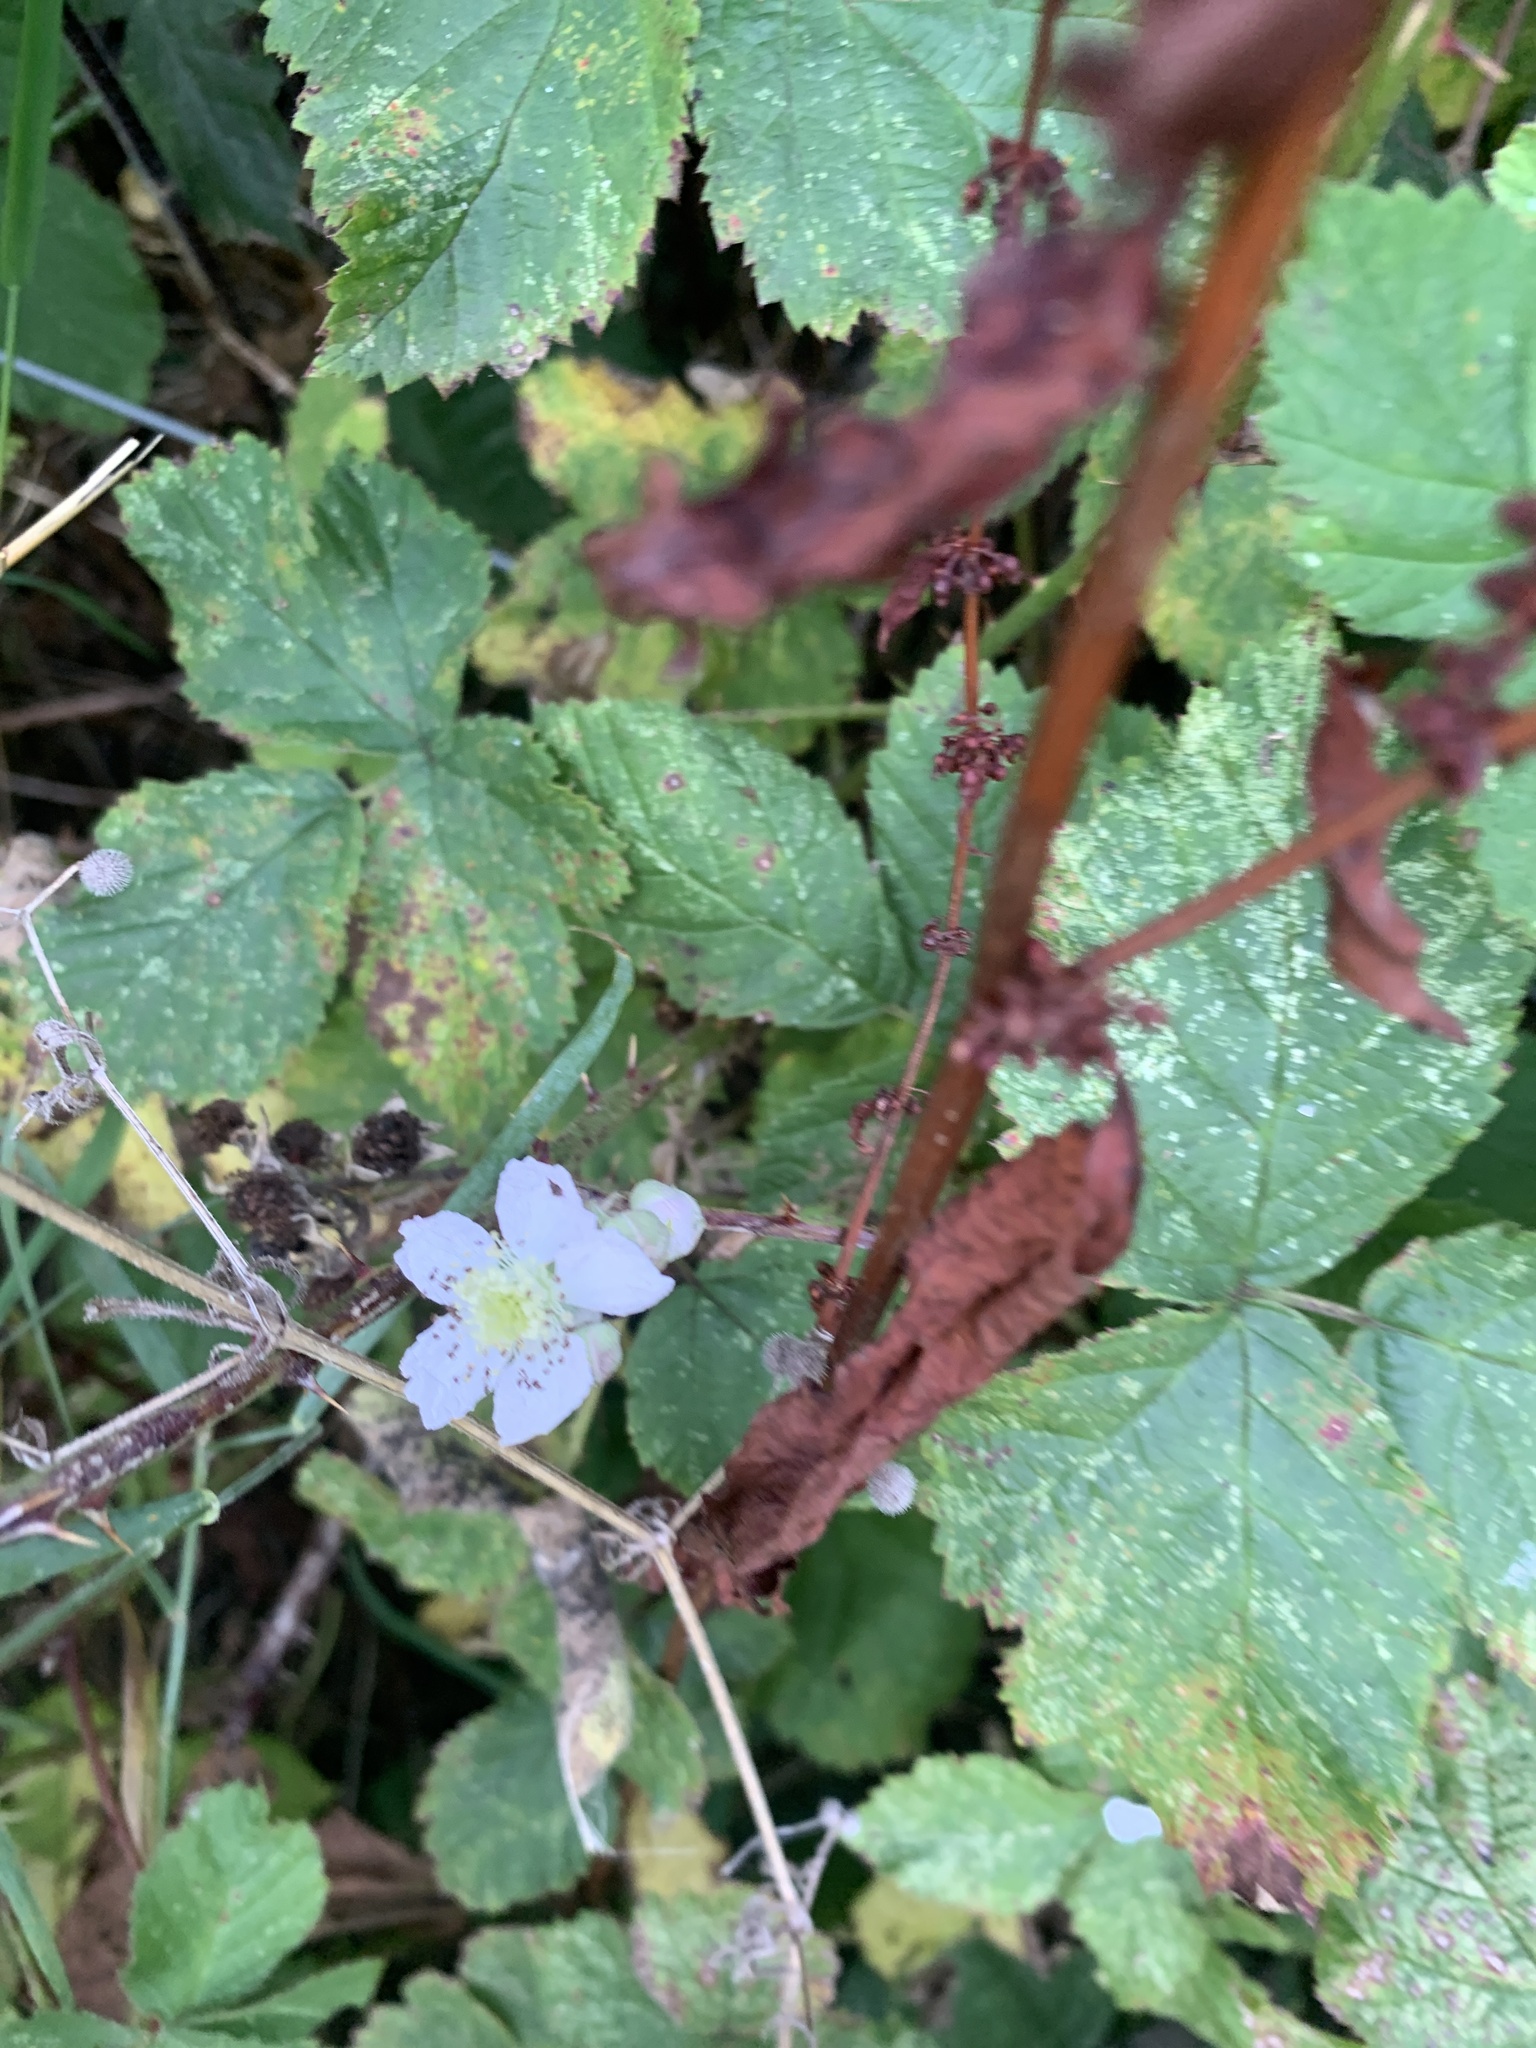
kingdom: Plantae
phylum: Tracheophyta
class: Magnoliopsida
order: Rosales
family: Rosaceae
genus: Rubus
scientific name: Rubus fruticosus
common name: Blackberry, bramble
